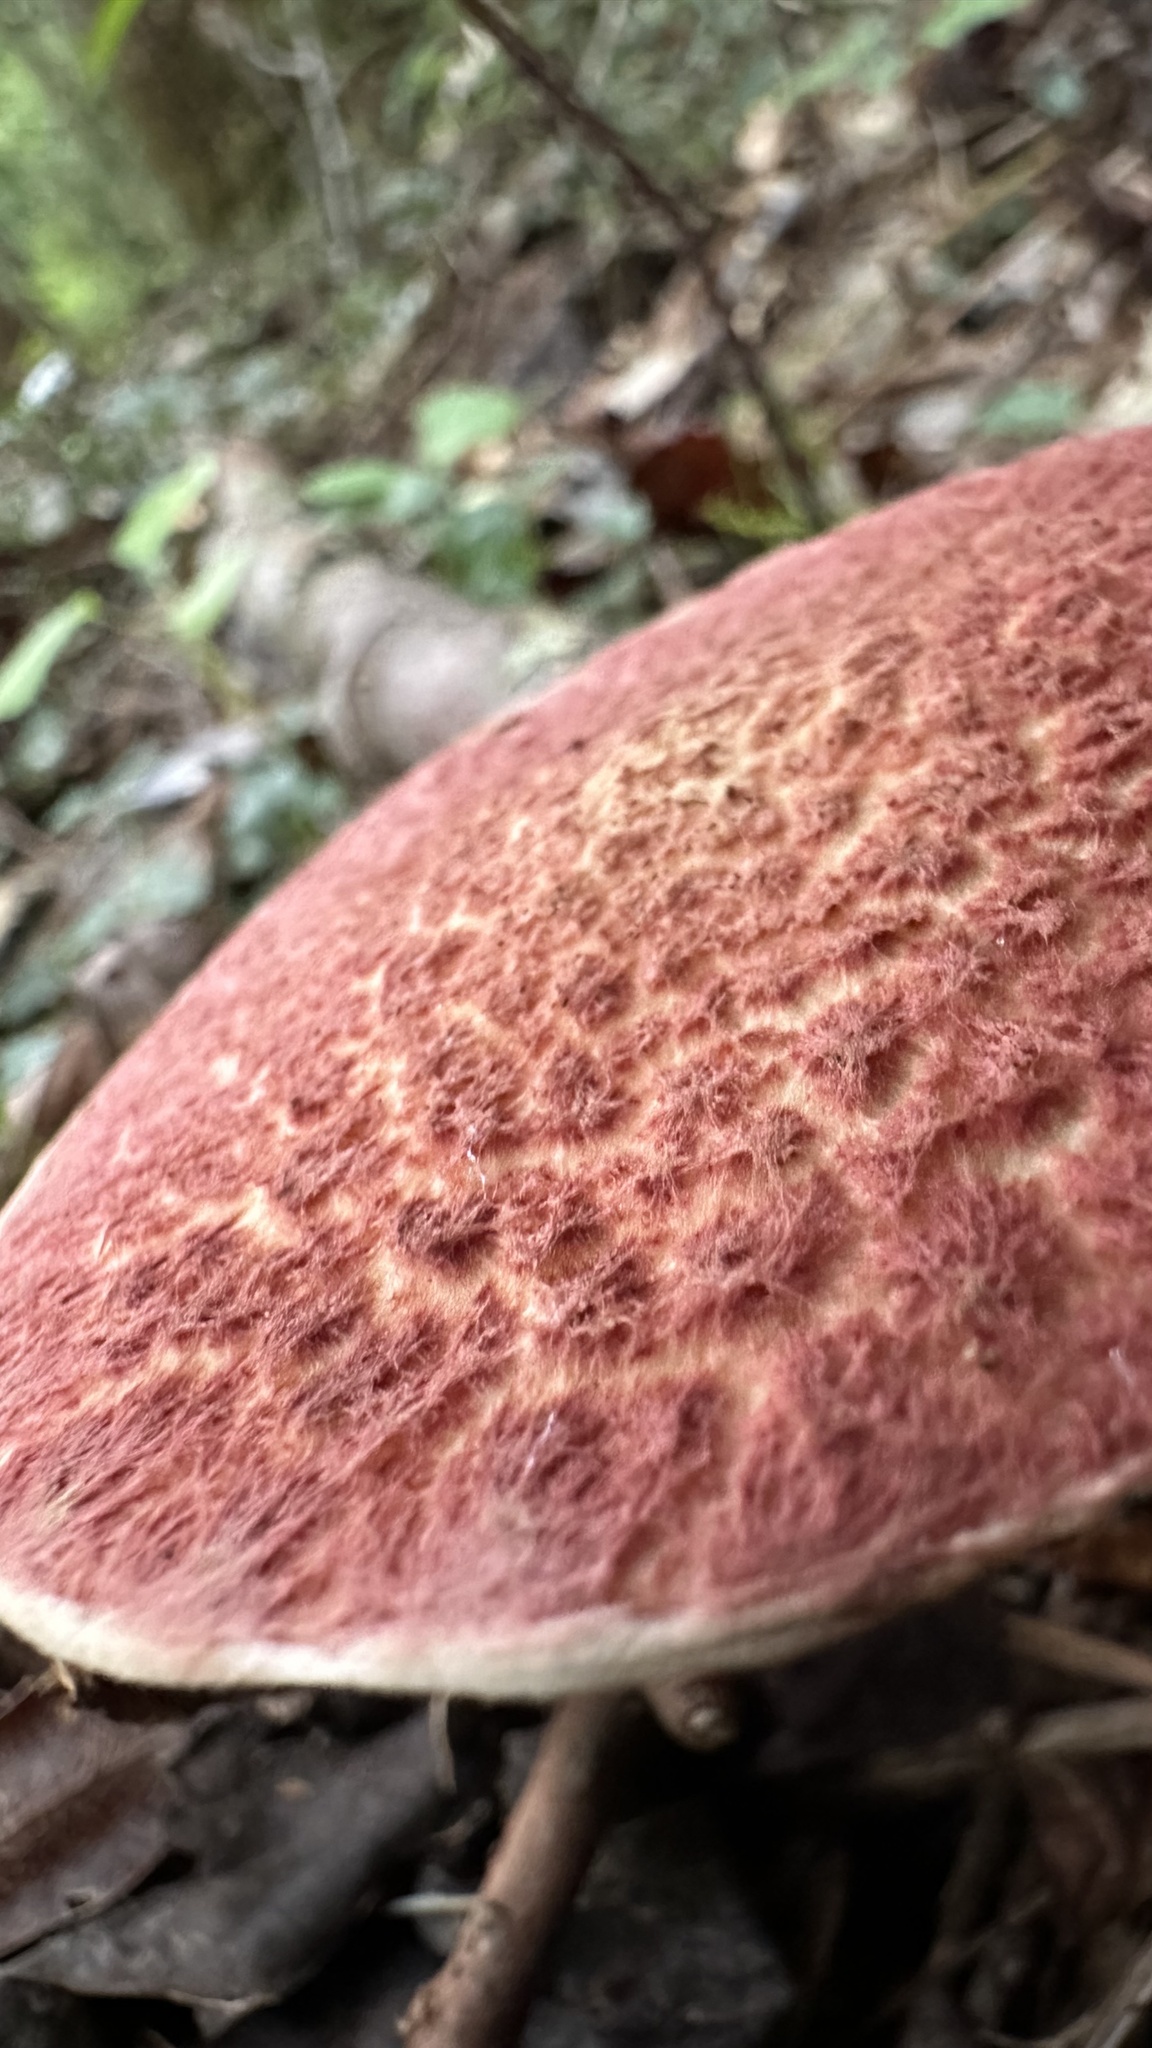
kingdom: Fungi
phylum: Basidiomycota
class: Agaricomycetes
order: Boletales
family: Suillaceae
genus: Suillus
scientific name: Suillus spraguei
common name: Painted suillus
